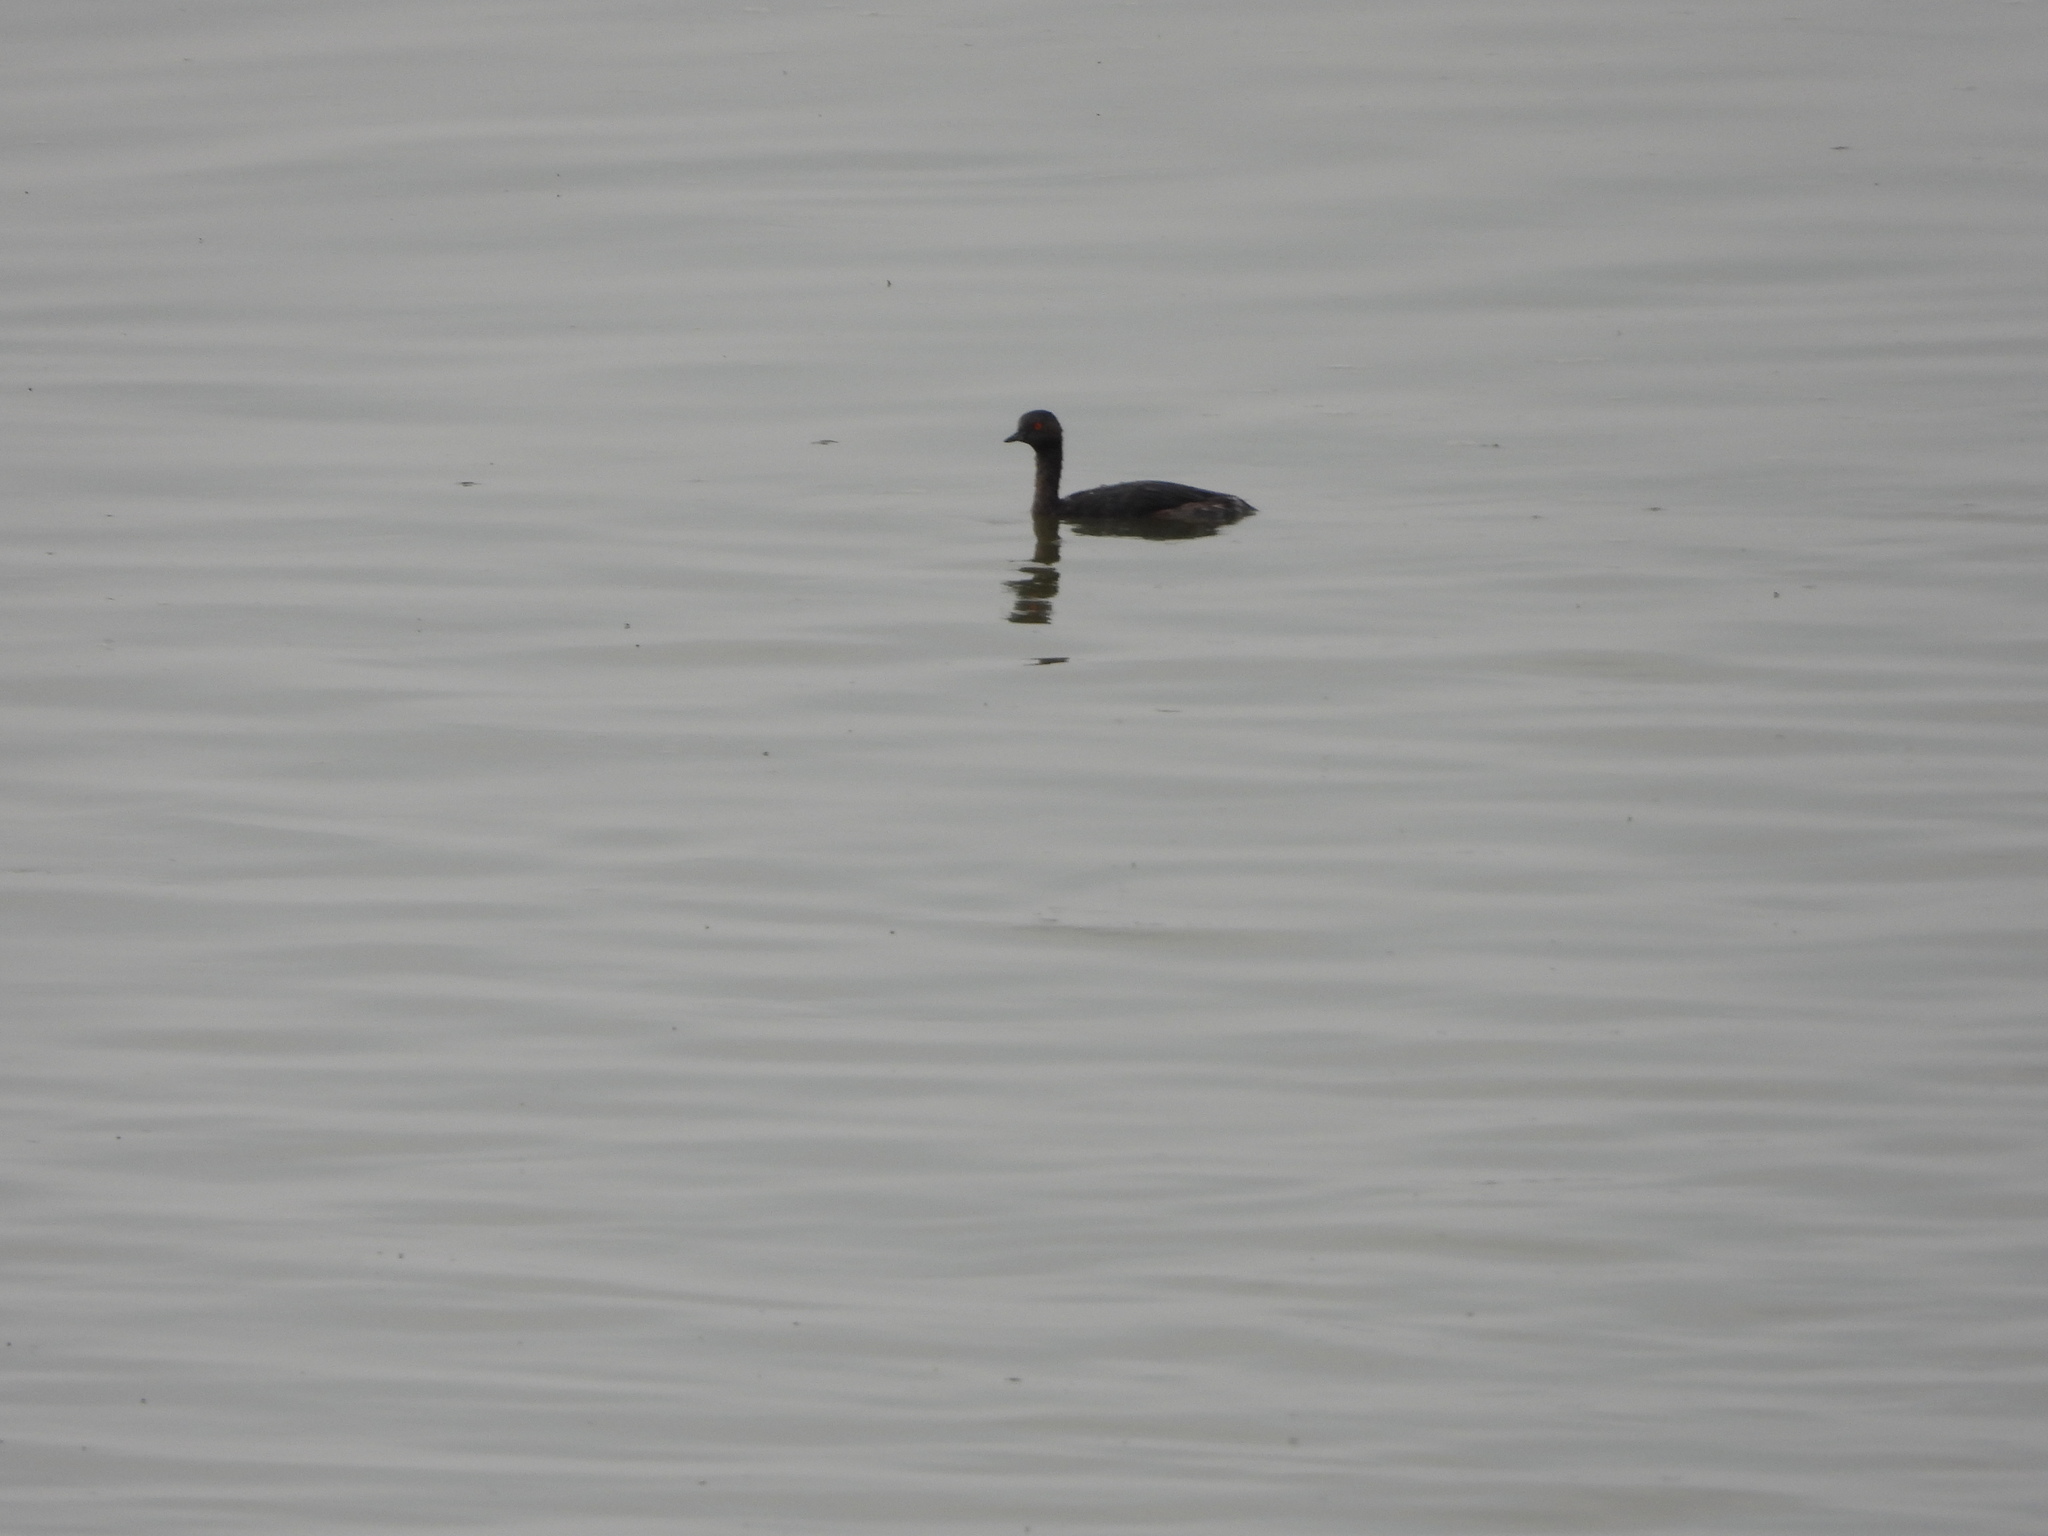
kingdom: Animalia
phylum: Chordata
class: Aves
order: Podicipediformes
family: Podicipedidae
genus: Podiceps
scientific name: Podiceps nigricollis
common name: Black-necked grebe
